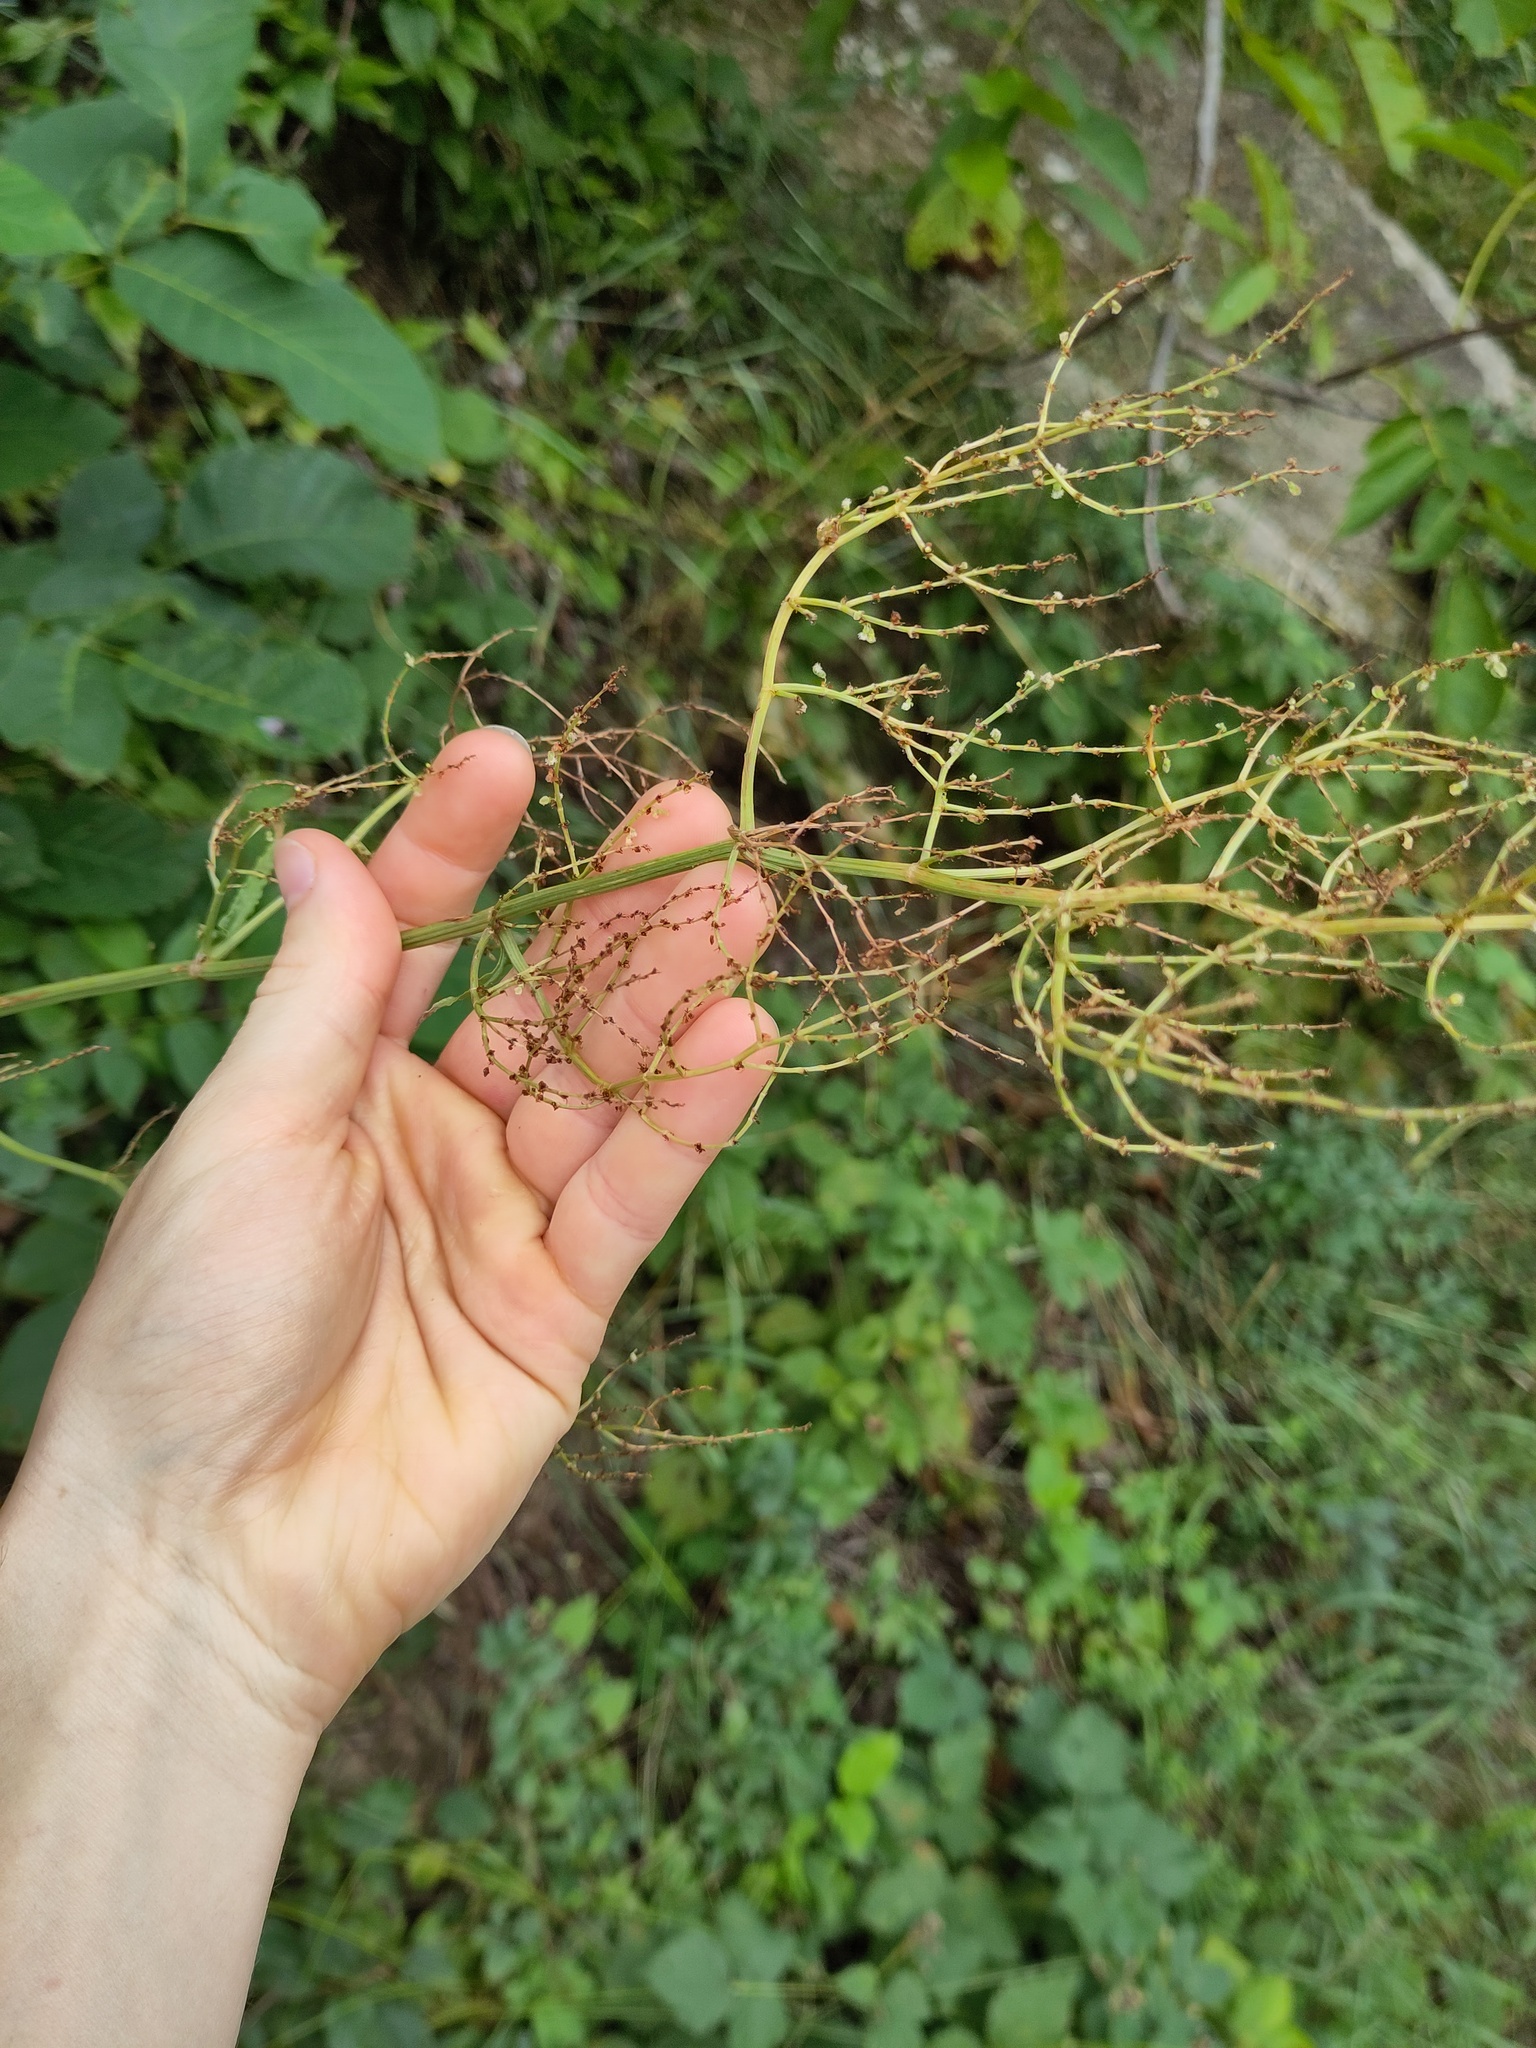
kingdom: Plantae
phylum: Tracheophyta
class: Magnoliopsida
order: Caryophyllales
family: Polygonaceae
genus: Rumex
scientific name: Rumex thyrsiflorus
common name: Garden sorrel
